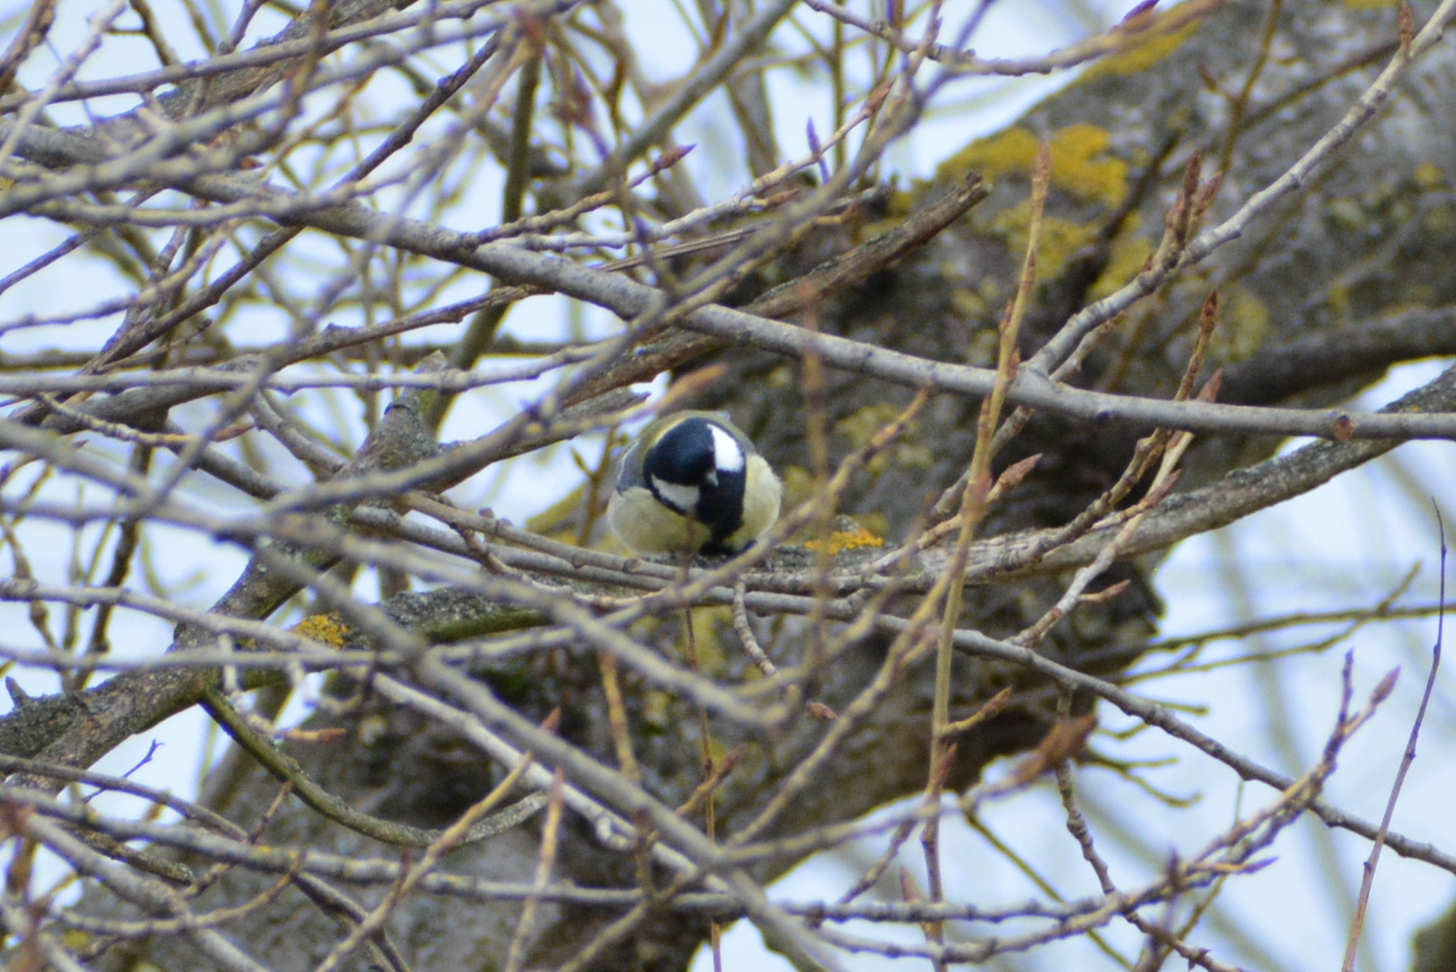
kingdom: Animalia
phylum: Chordata
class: Aves
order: Passeriformes
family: Paridae
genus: Parus
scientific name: Parus major
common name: Great tit
